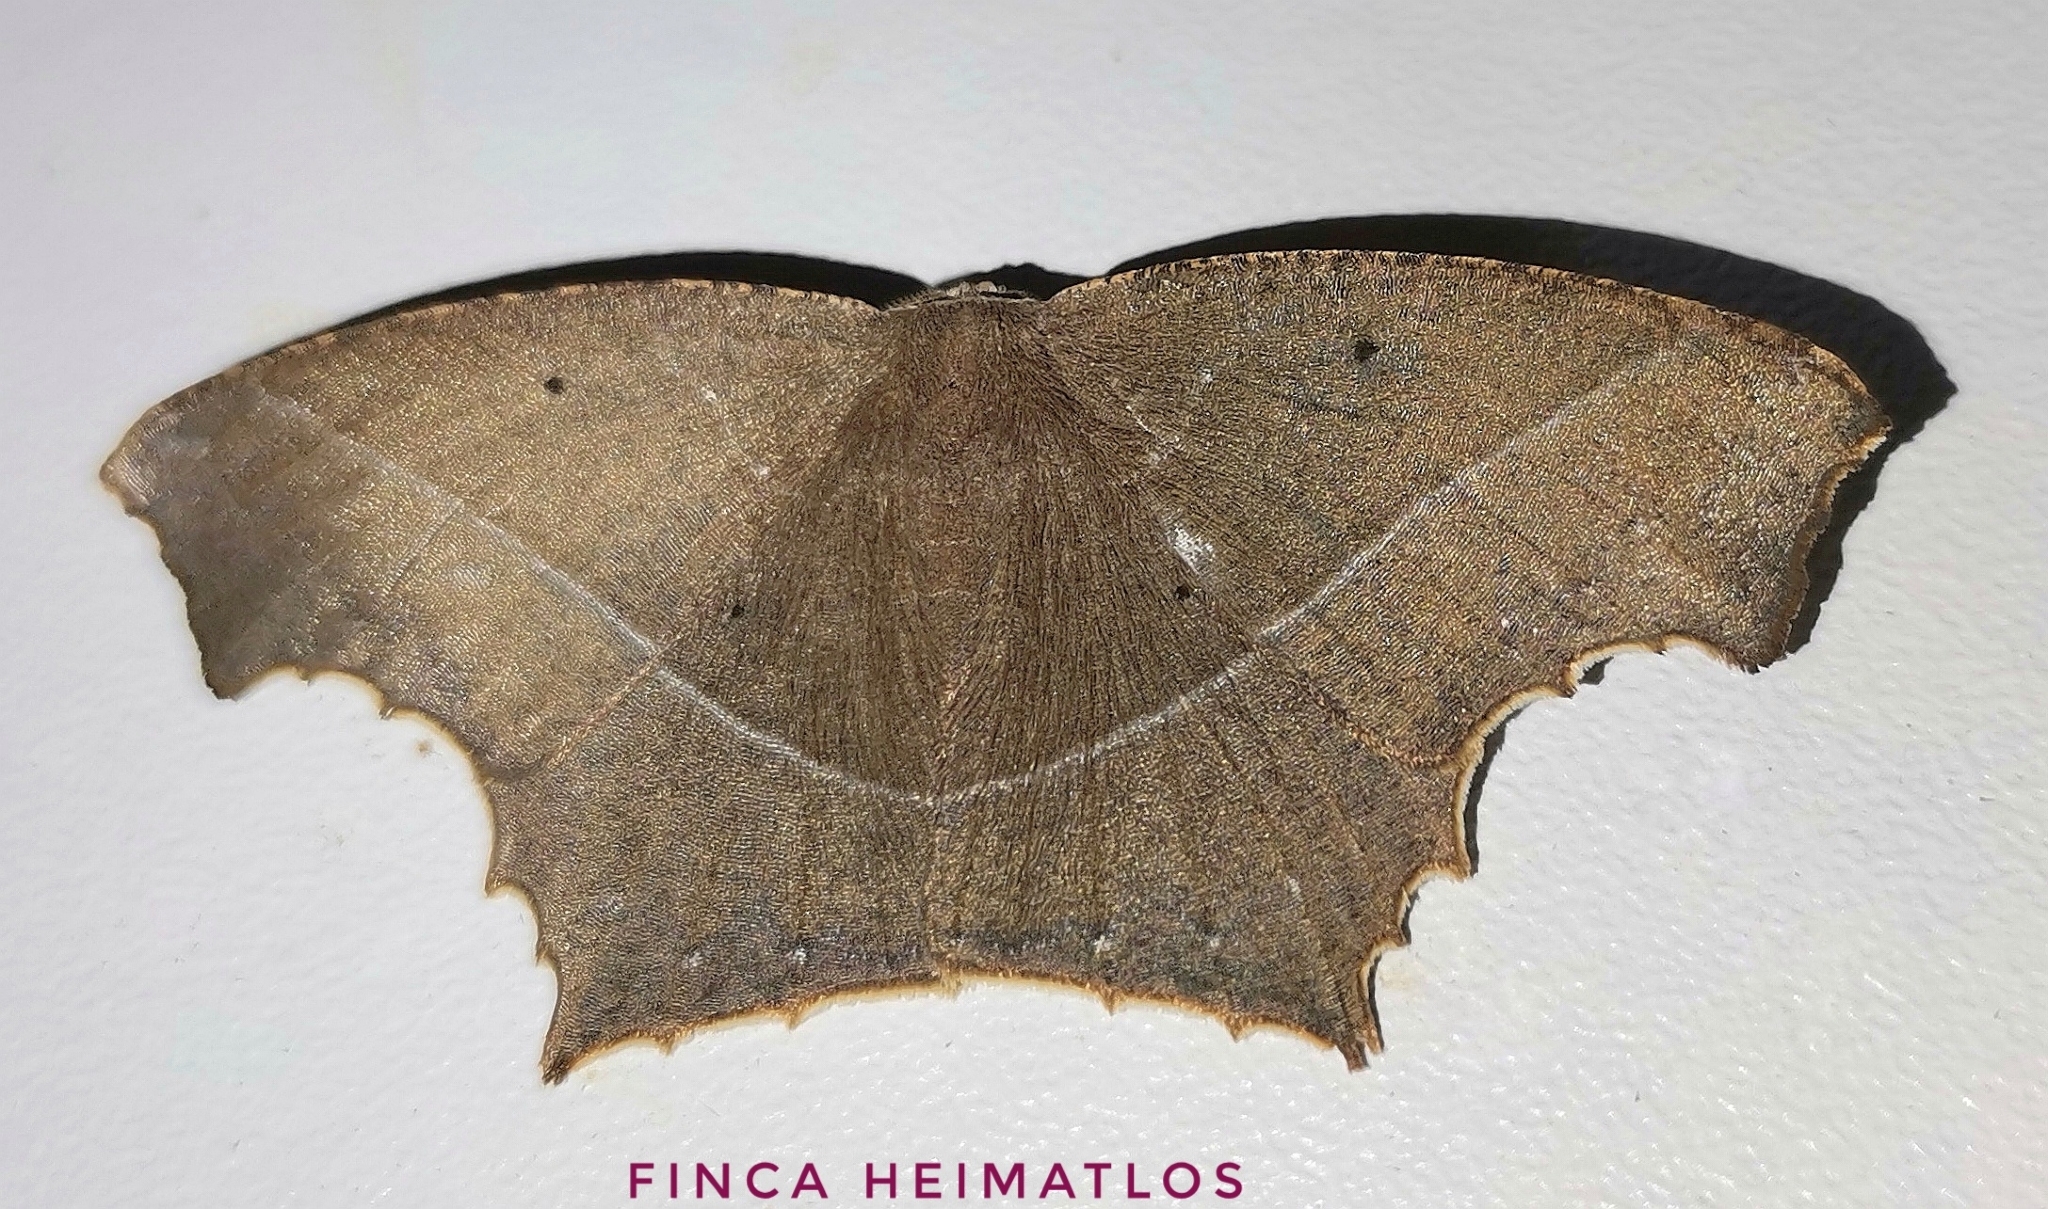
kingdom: Animalia
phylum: Arthropoda
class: Insecta
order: Lepidoptera
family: Geometridae
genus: Eutomopepla
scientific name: Eutomopepla annulipes
